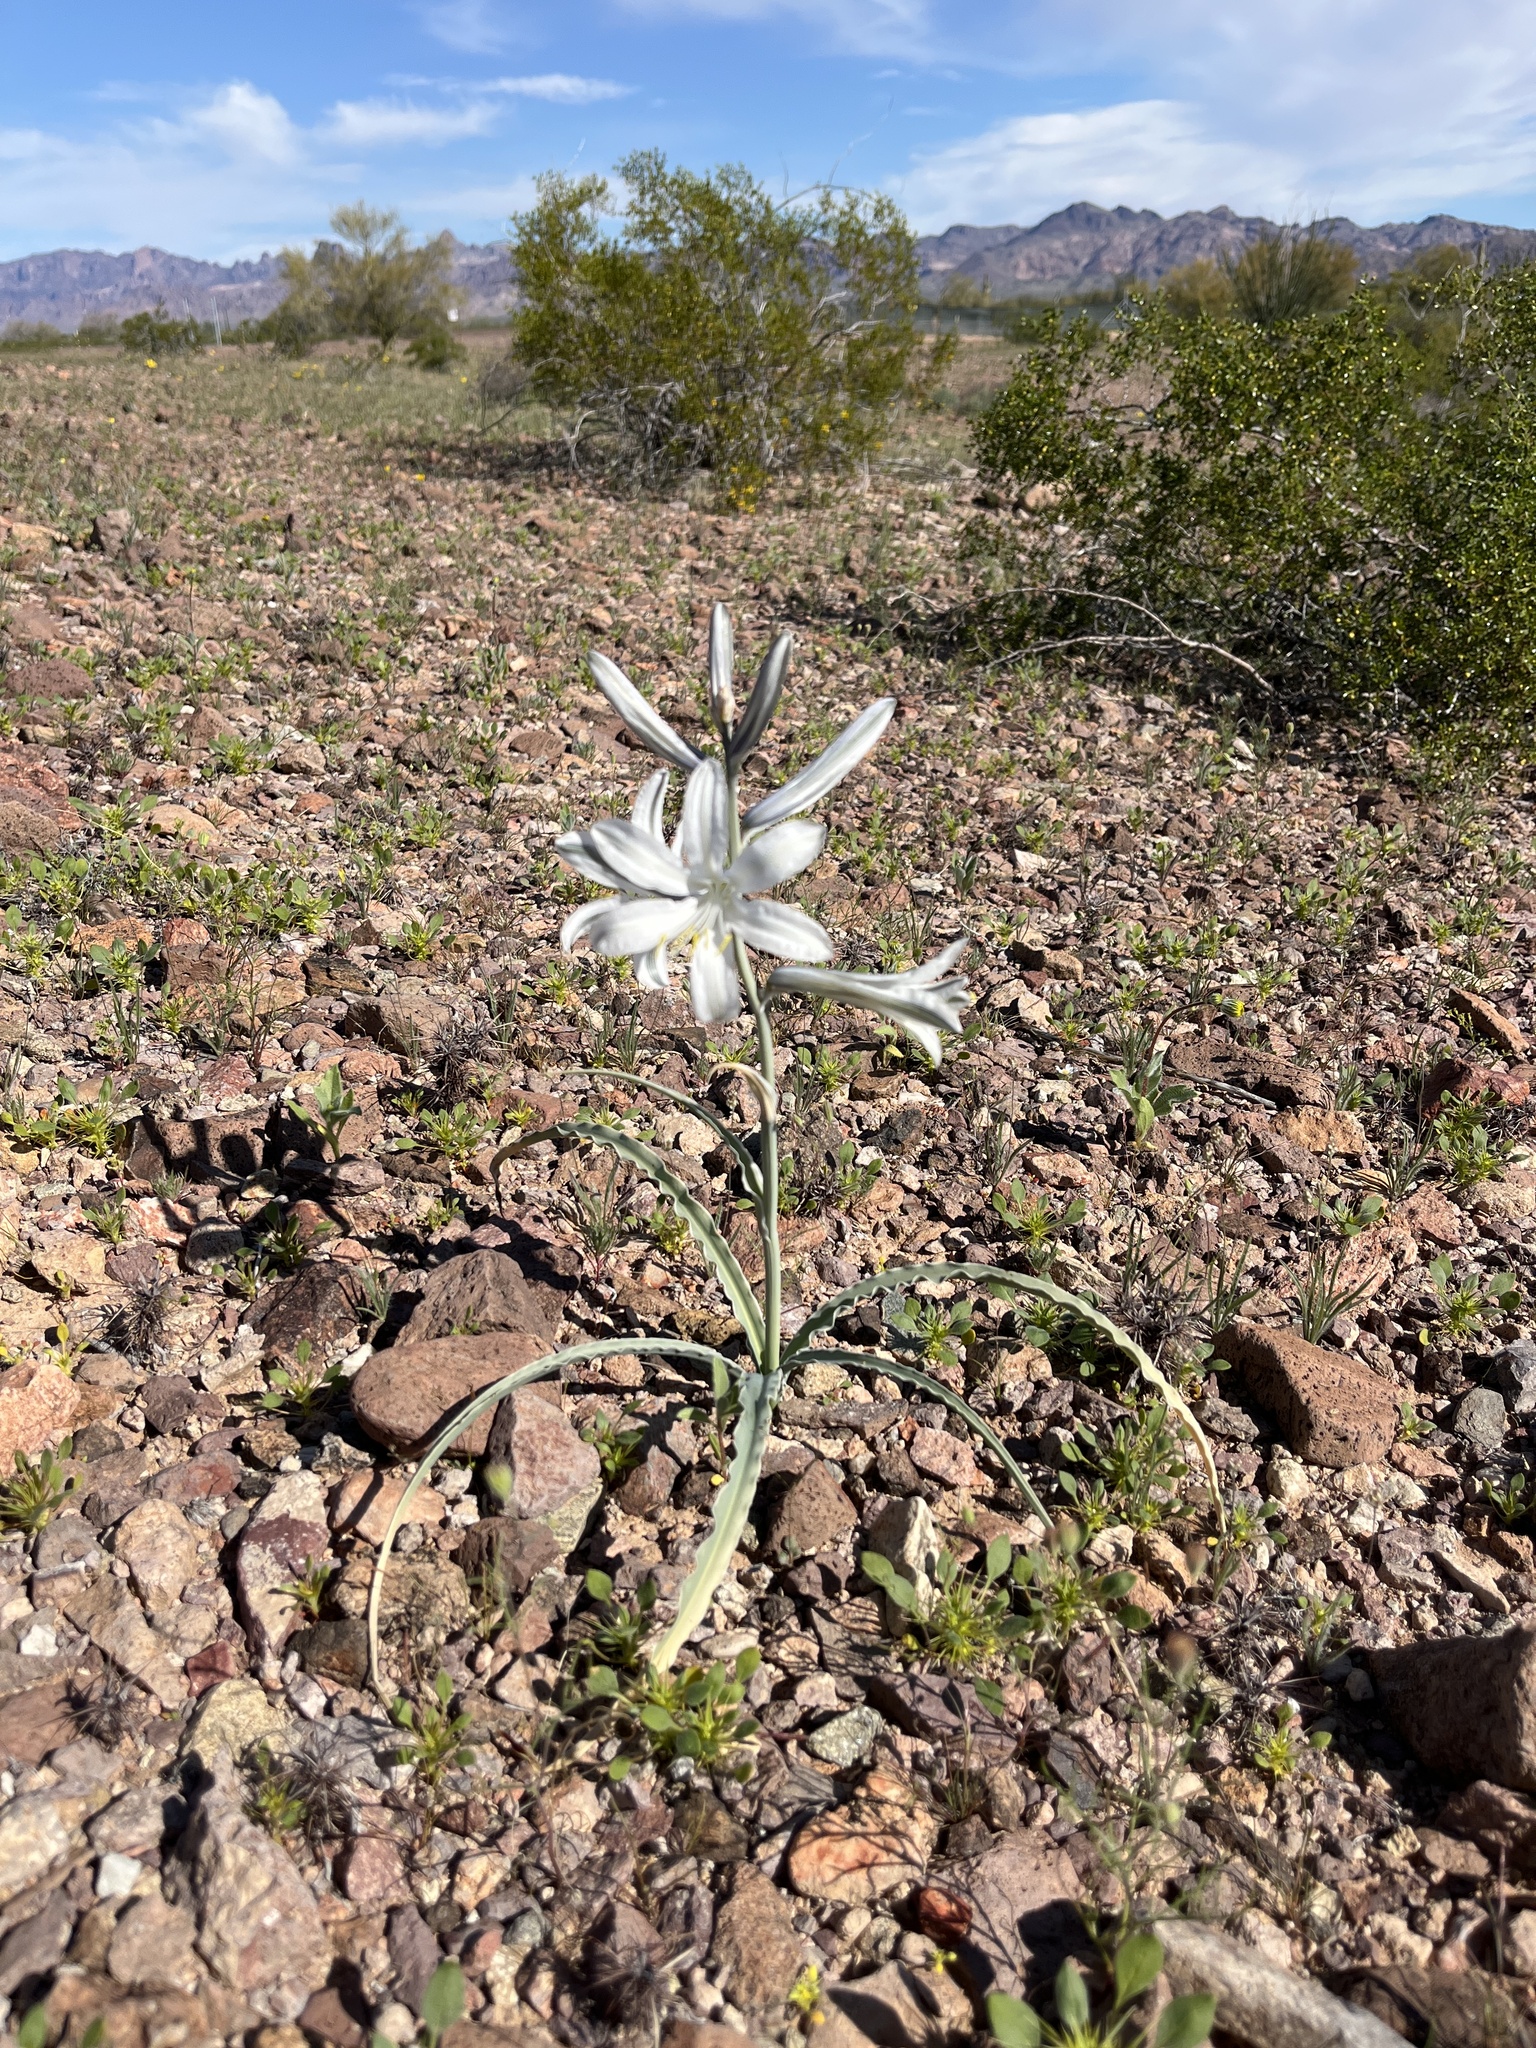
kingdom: Plantae
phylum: Tracheophyta
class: Liliopsida
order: Asparagales
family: Asparagaceae
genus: Hesperocallis
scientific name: Hesperocallis undulata
